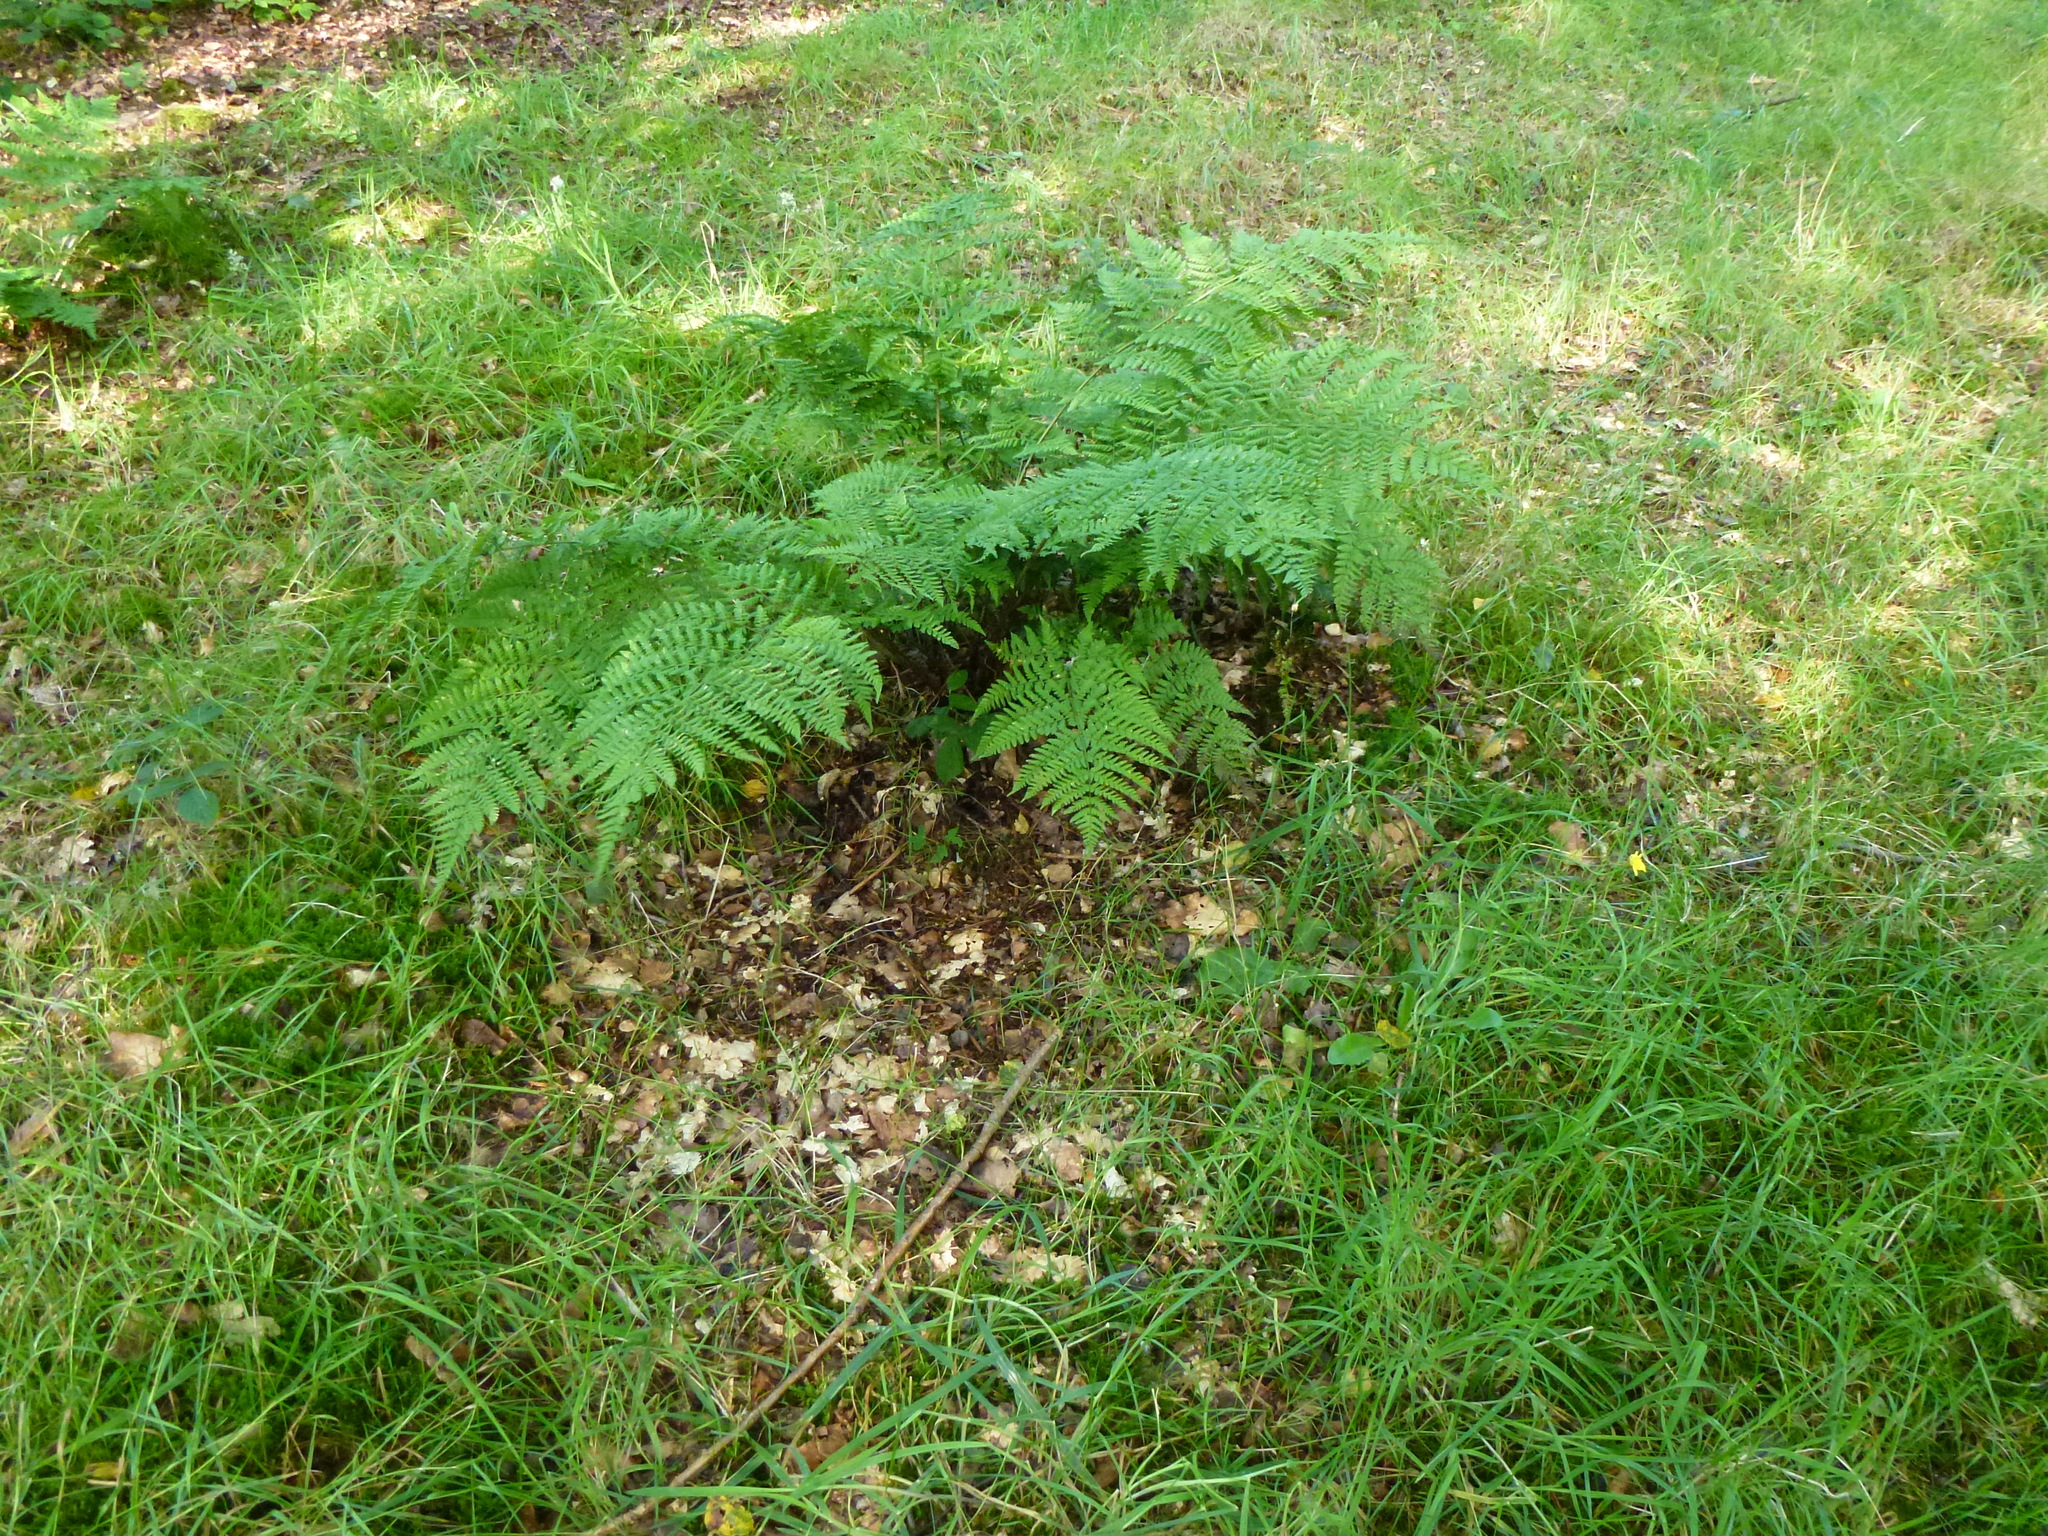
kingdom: Plantae
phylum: Tracheophyta
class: Polypodiopsida
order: Polypodiales
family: Dryopteridaceae
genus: Dryopteris
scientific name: Dryopteris dilatata
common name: Broad buckler-fern
